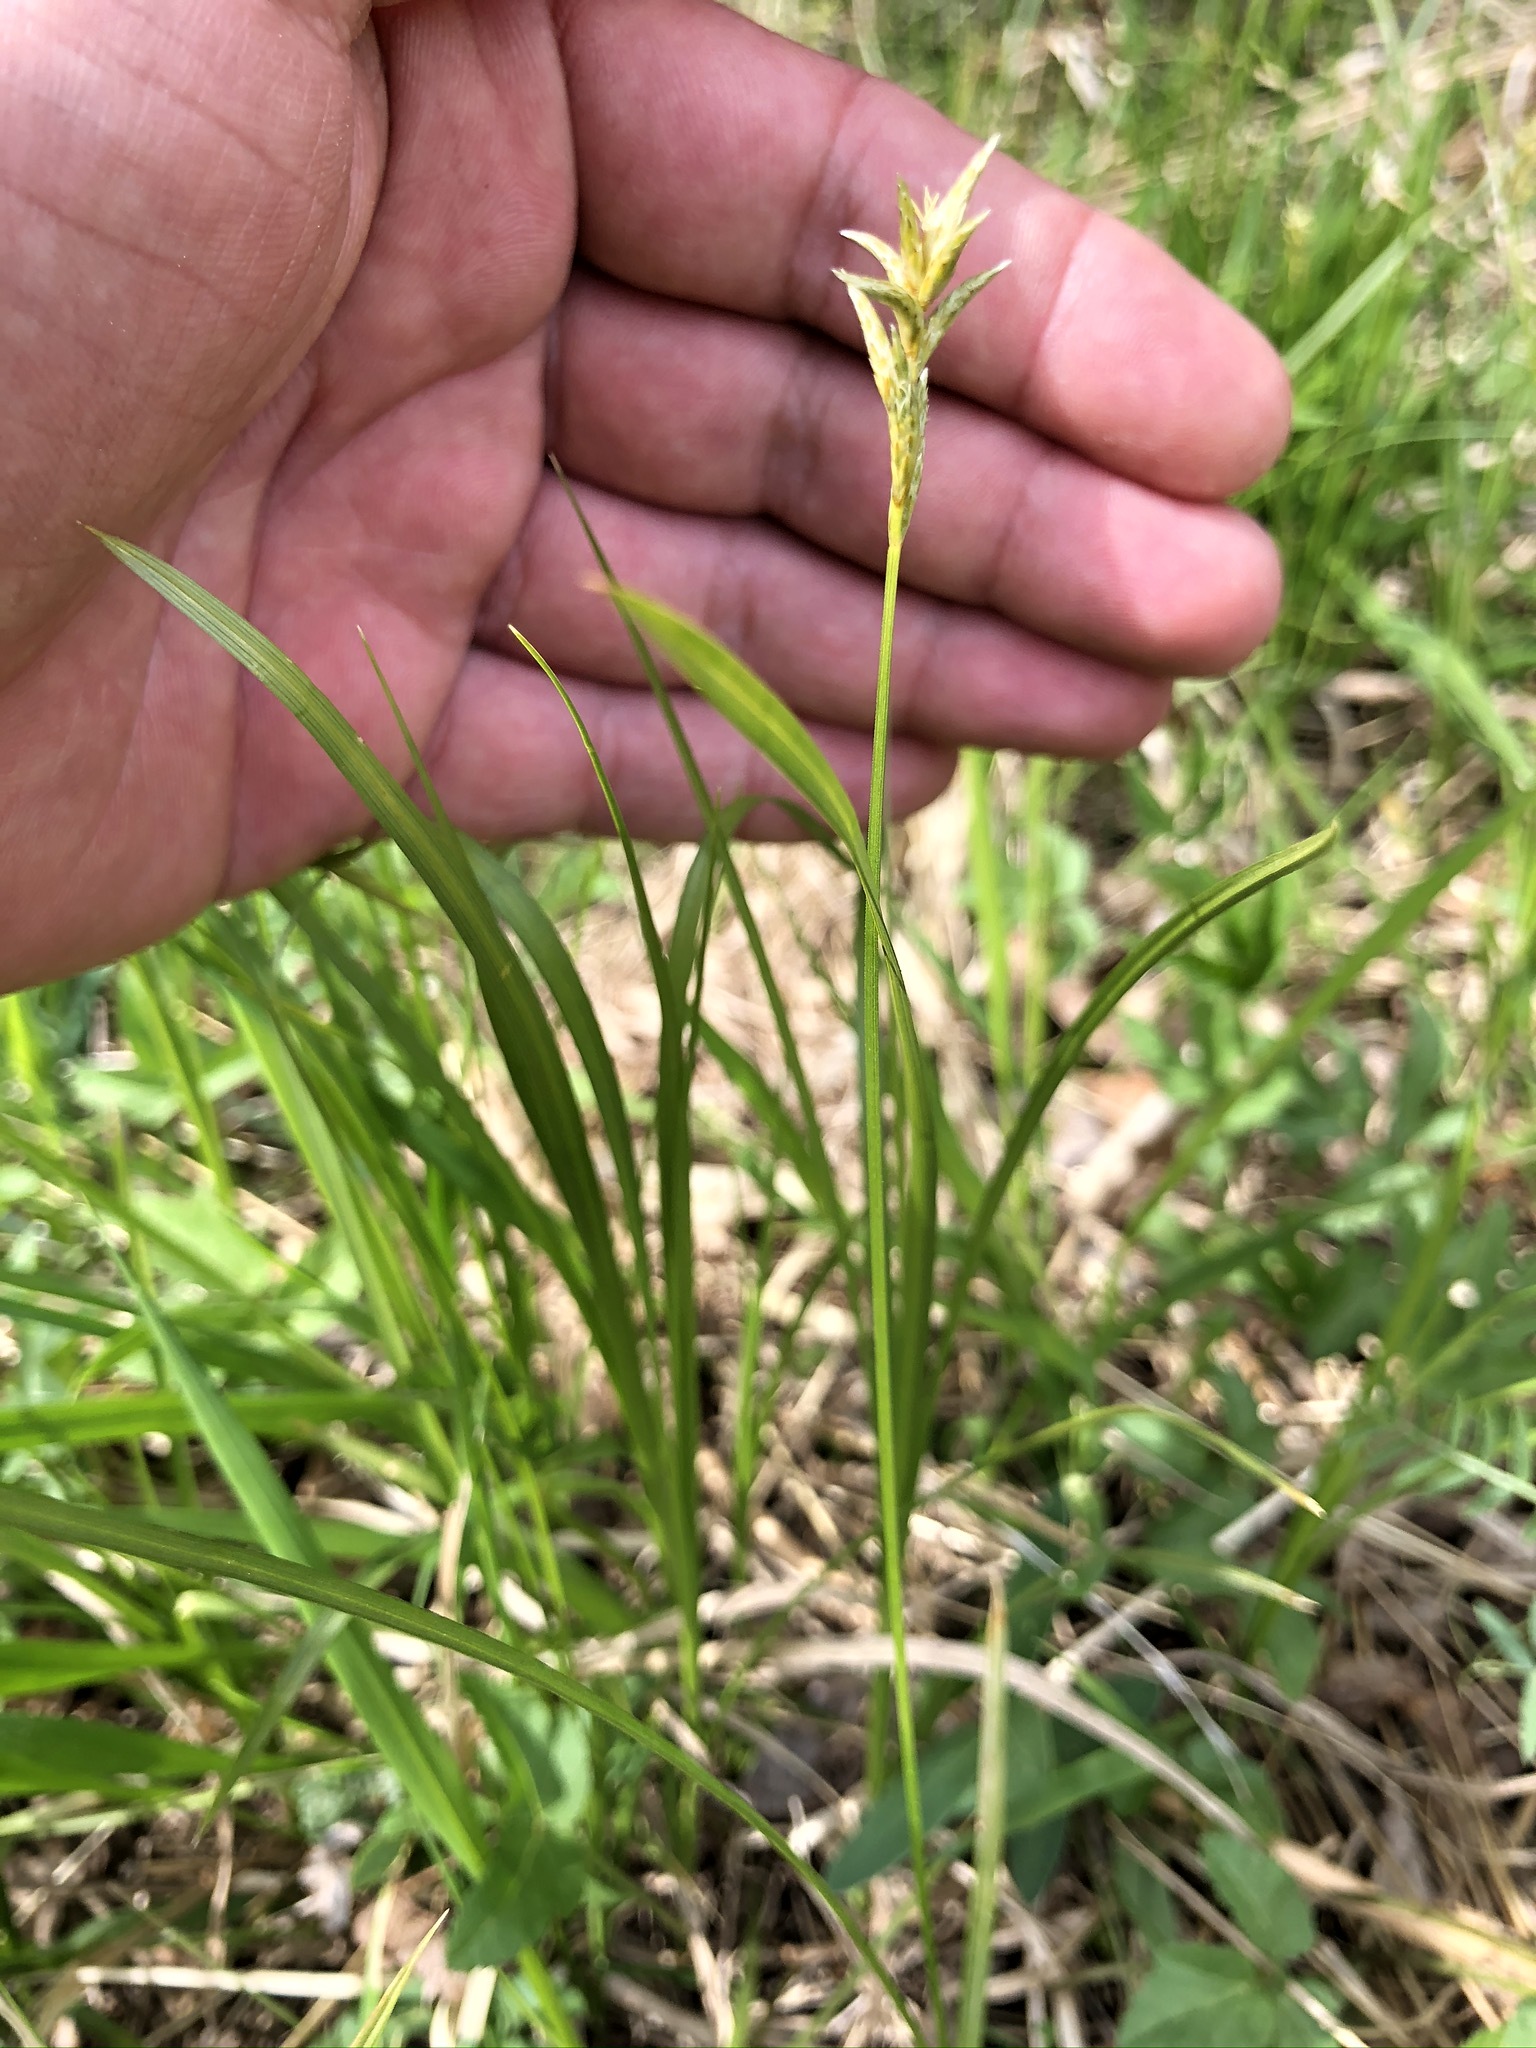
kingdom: Plantae
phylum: Tracheophyta
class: Liliopsida
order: Poales
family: Cyperaceae
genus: Carex
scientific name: Carex brizoides
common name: Quaking-grass sedge
